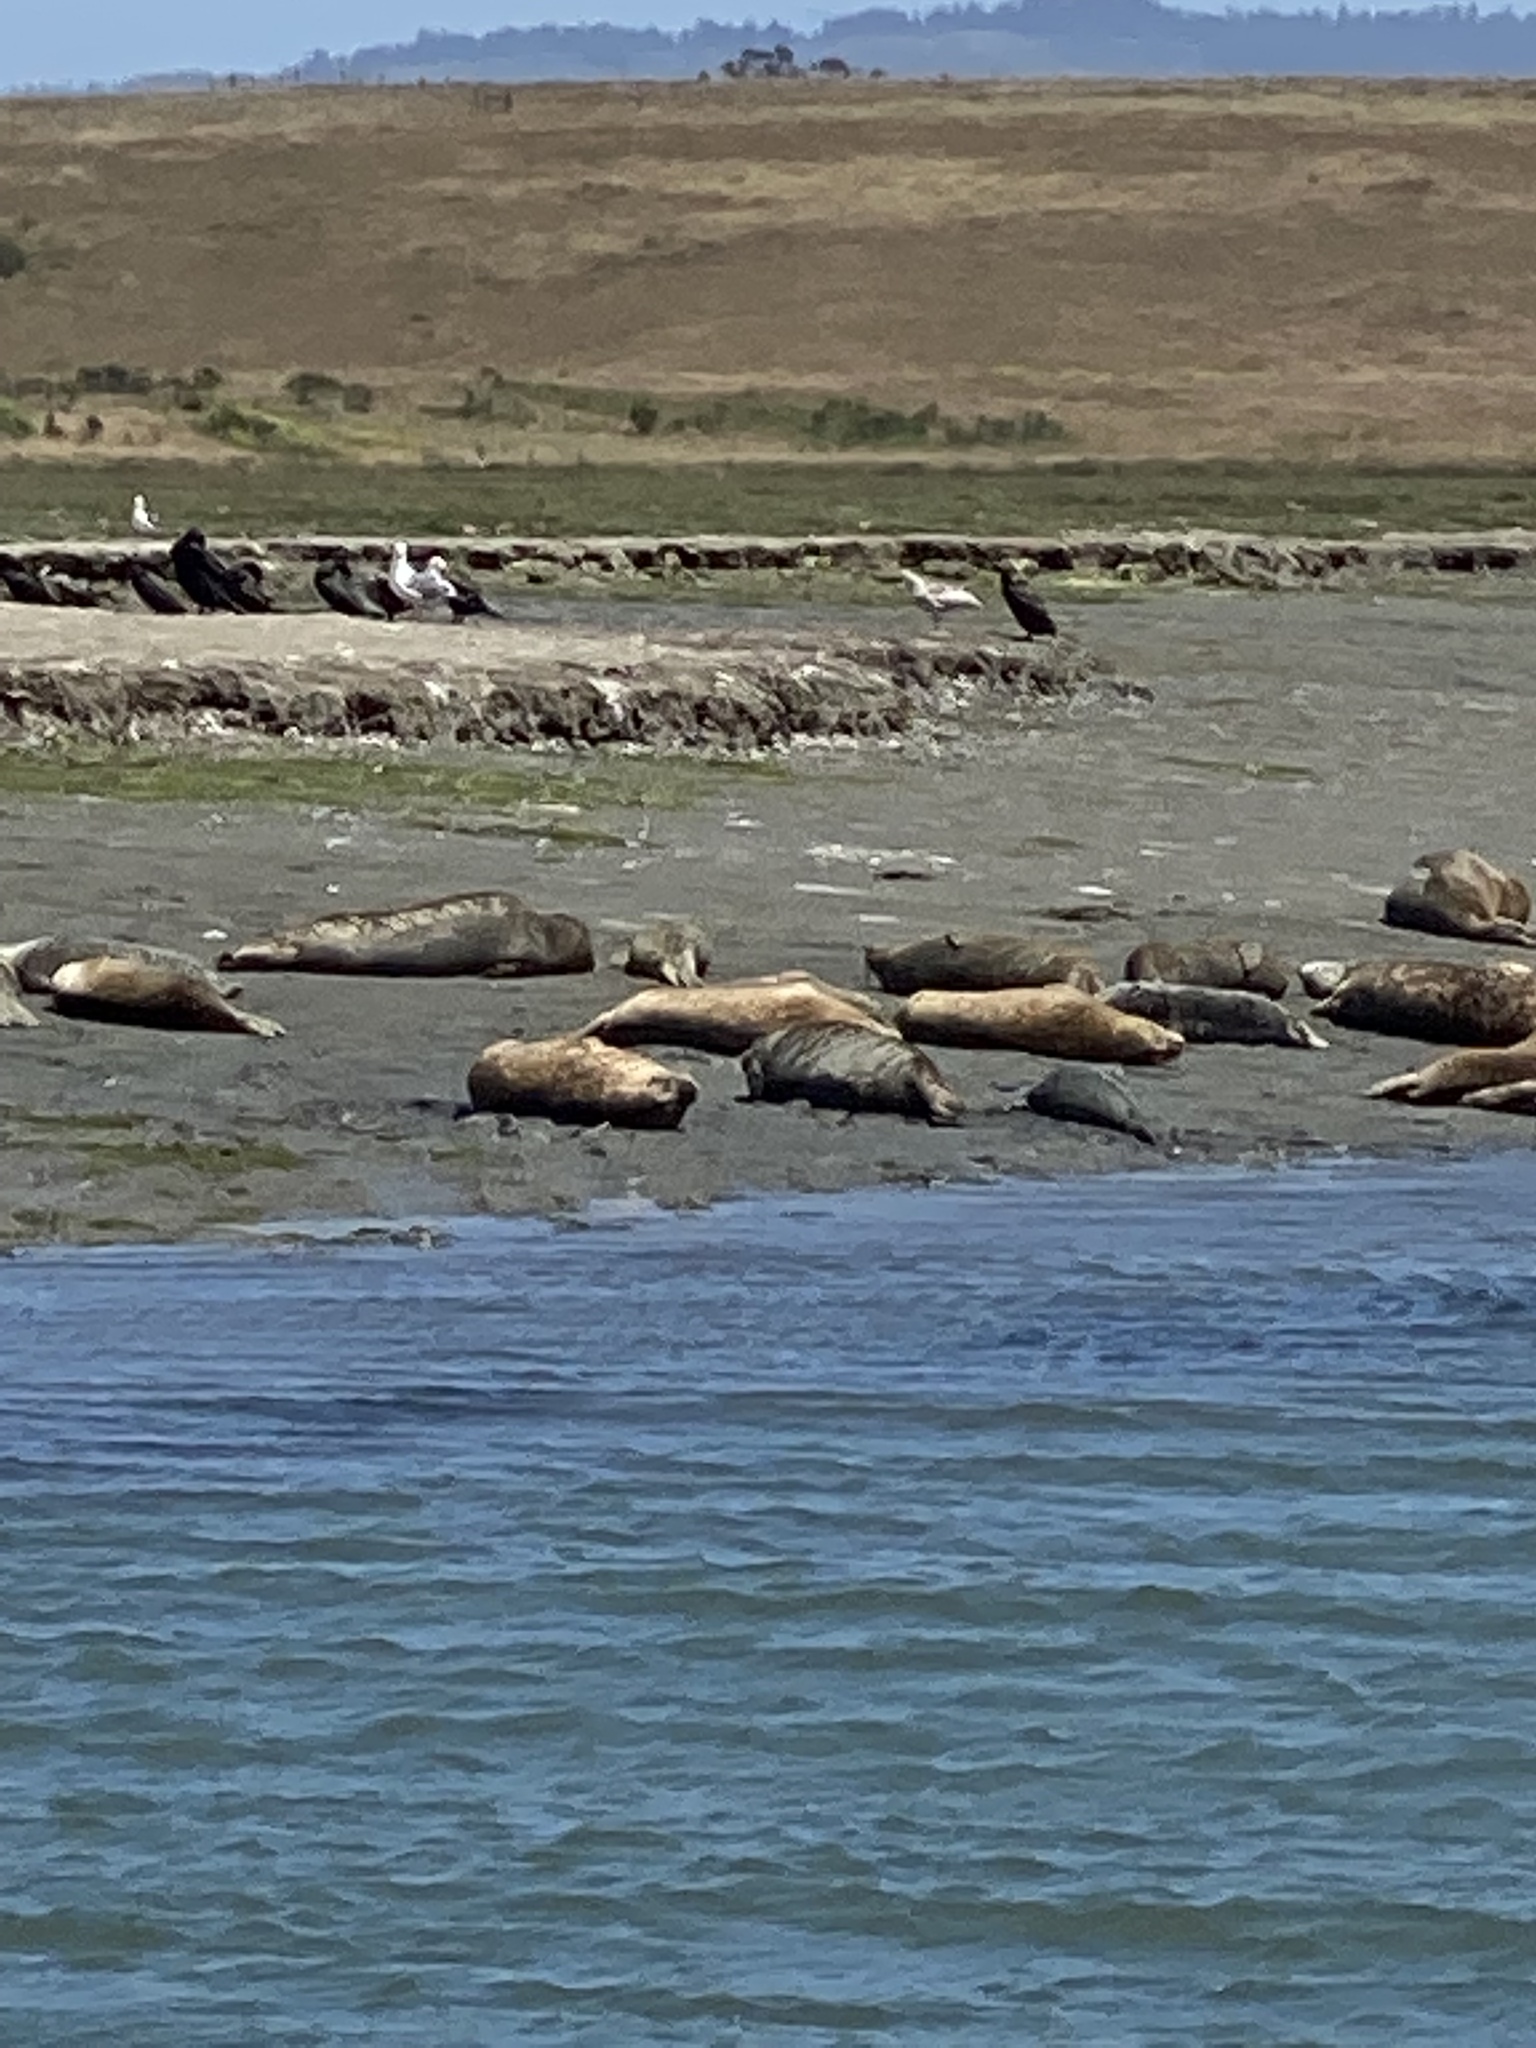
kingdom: Animalia
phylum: Chordata
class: Mammalia
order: Carnivora
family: Phocidae
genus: Phoca
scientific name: Phoca vitulina
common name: Harbor seal
